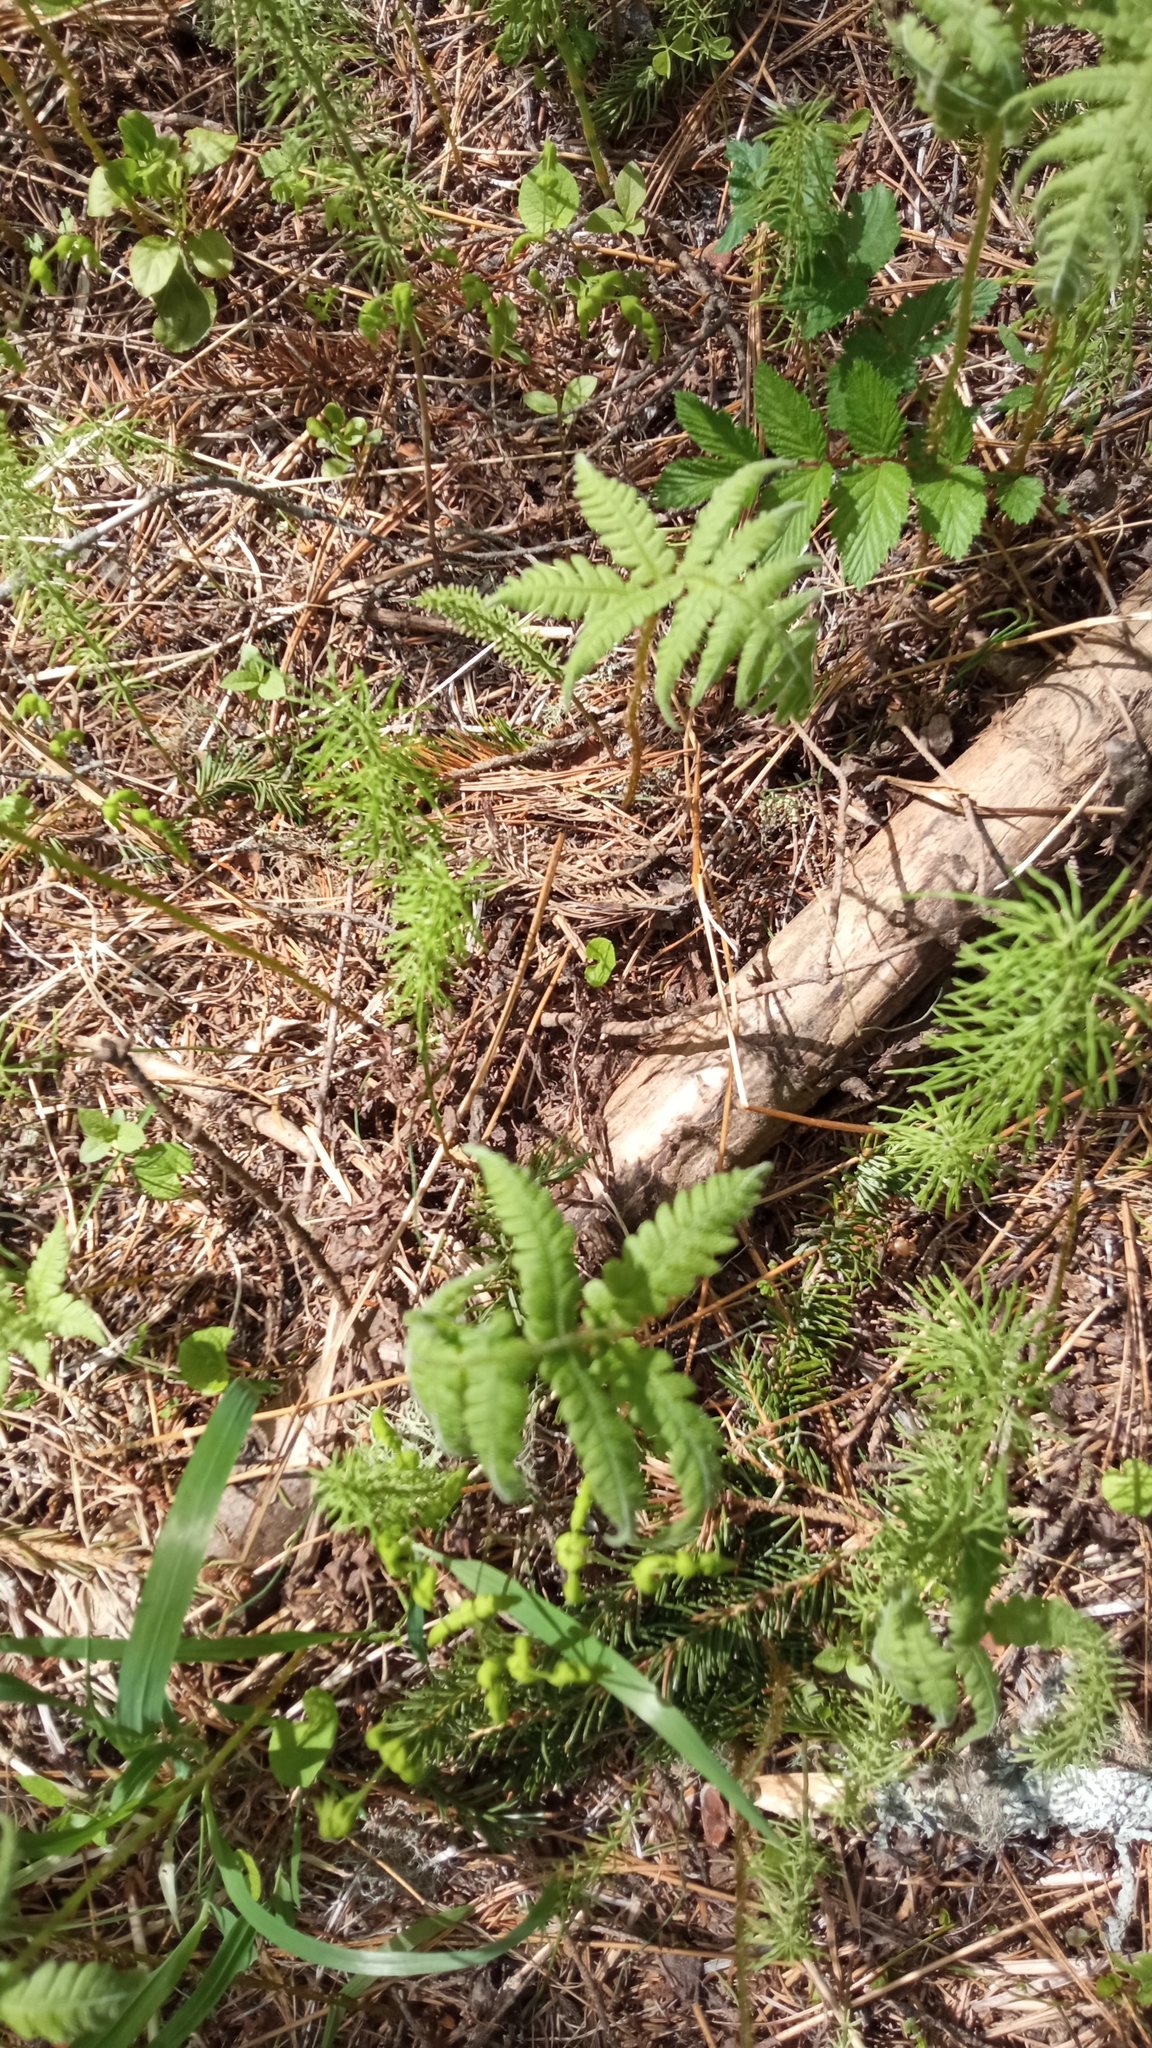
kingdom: Plantae
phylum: Tracheophyta
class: Polypodiopsida
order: Polypodiales
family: Thelypteridaceae
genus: Phegopteris
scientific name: Phegopteris connectilis
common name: Beech fern
